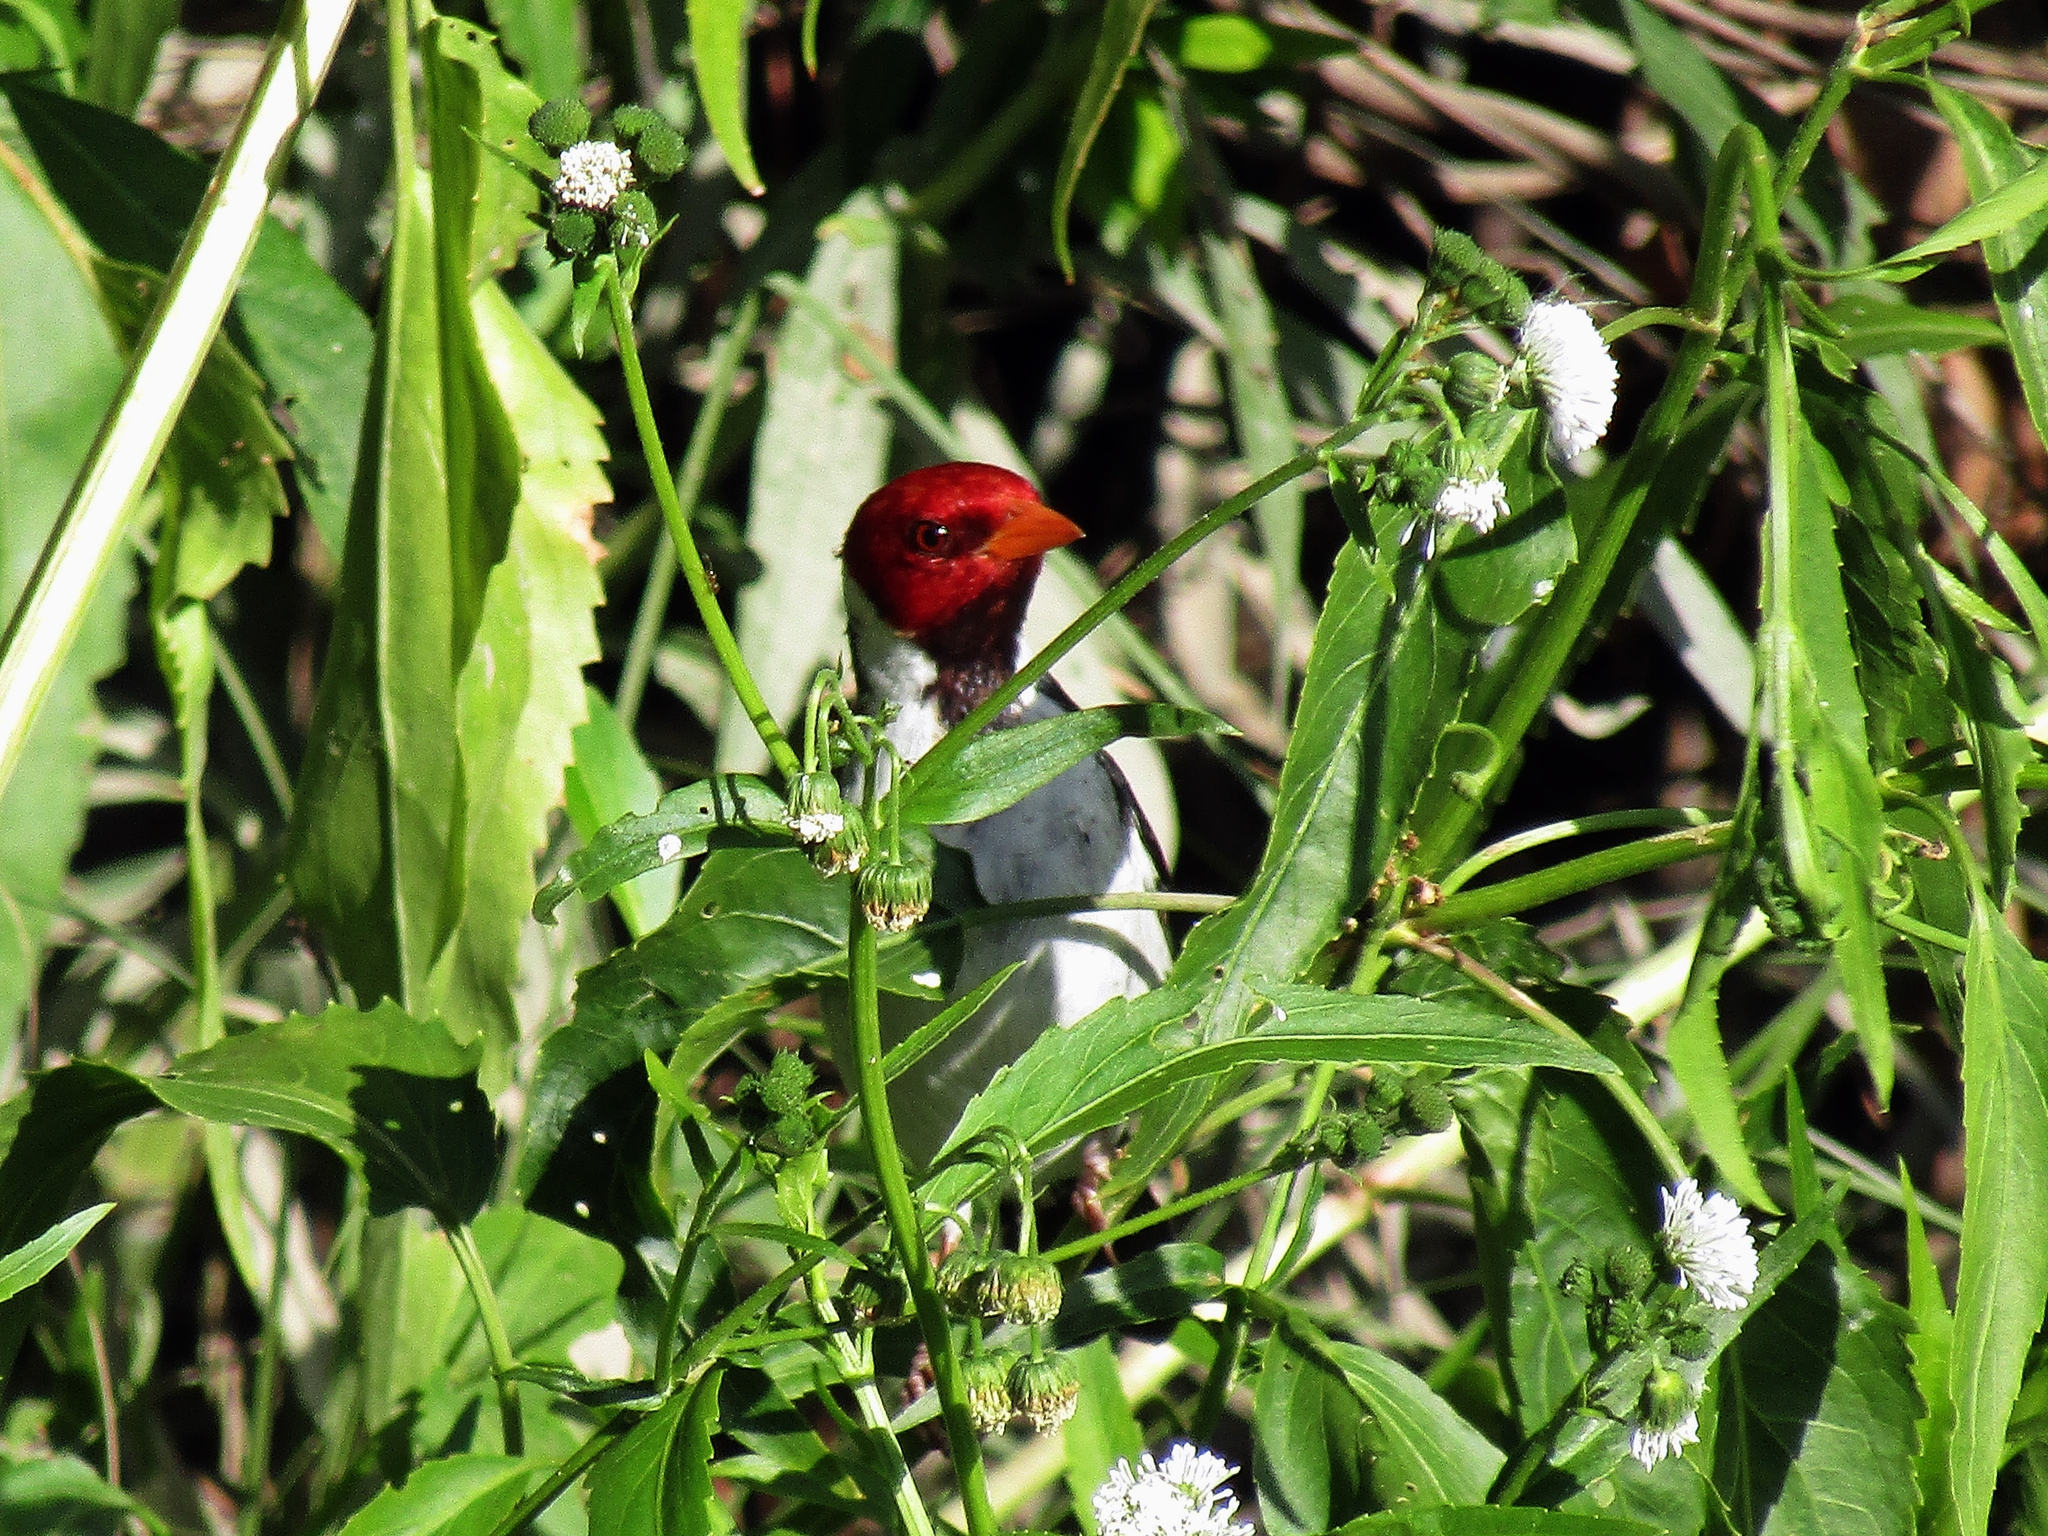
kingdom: Animalia
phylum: Chordata
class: Aves
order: Passeriformes
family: Thraupidae
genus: Paroaria
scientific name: Paroaria capitata
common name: Yellow-billed cardinal
